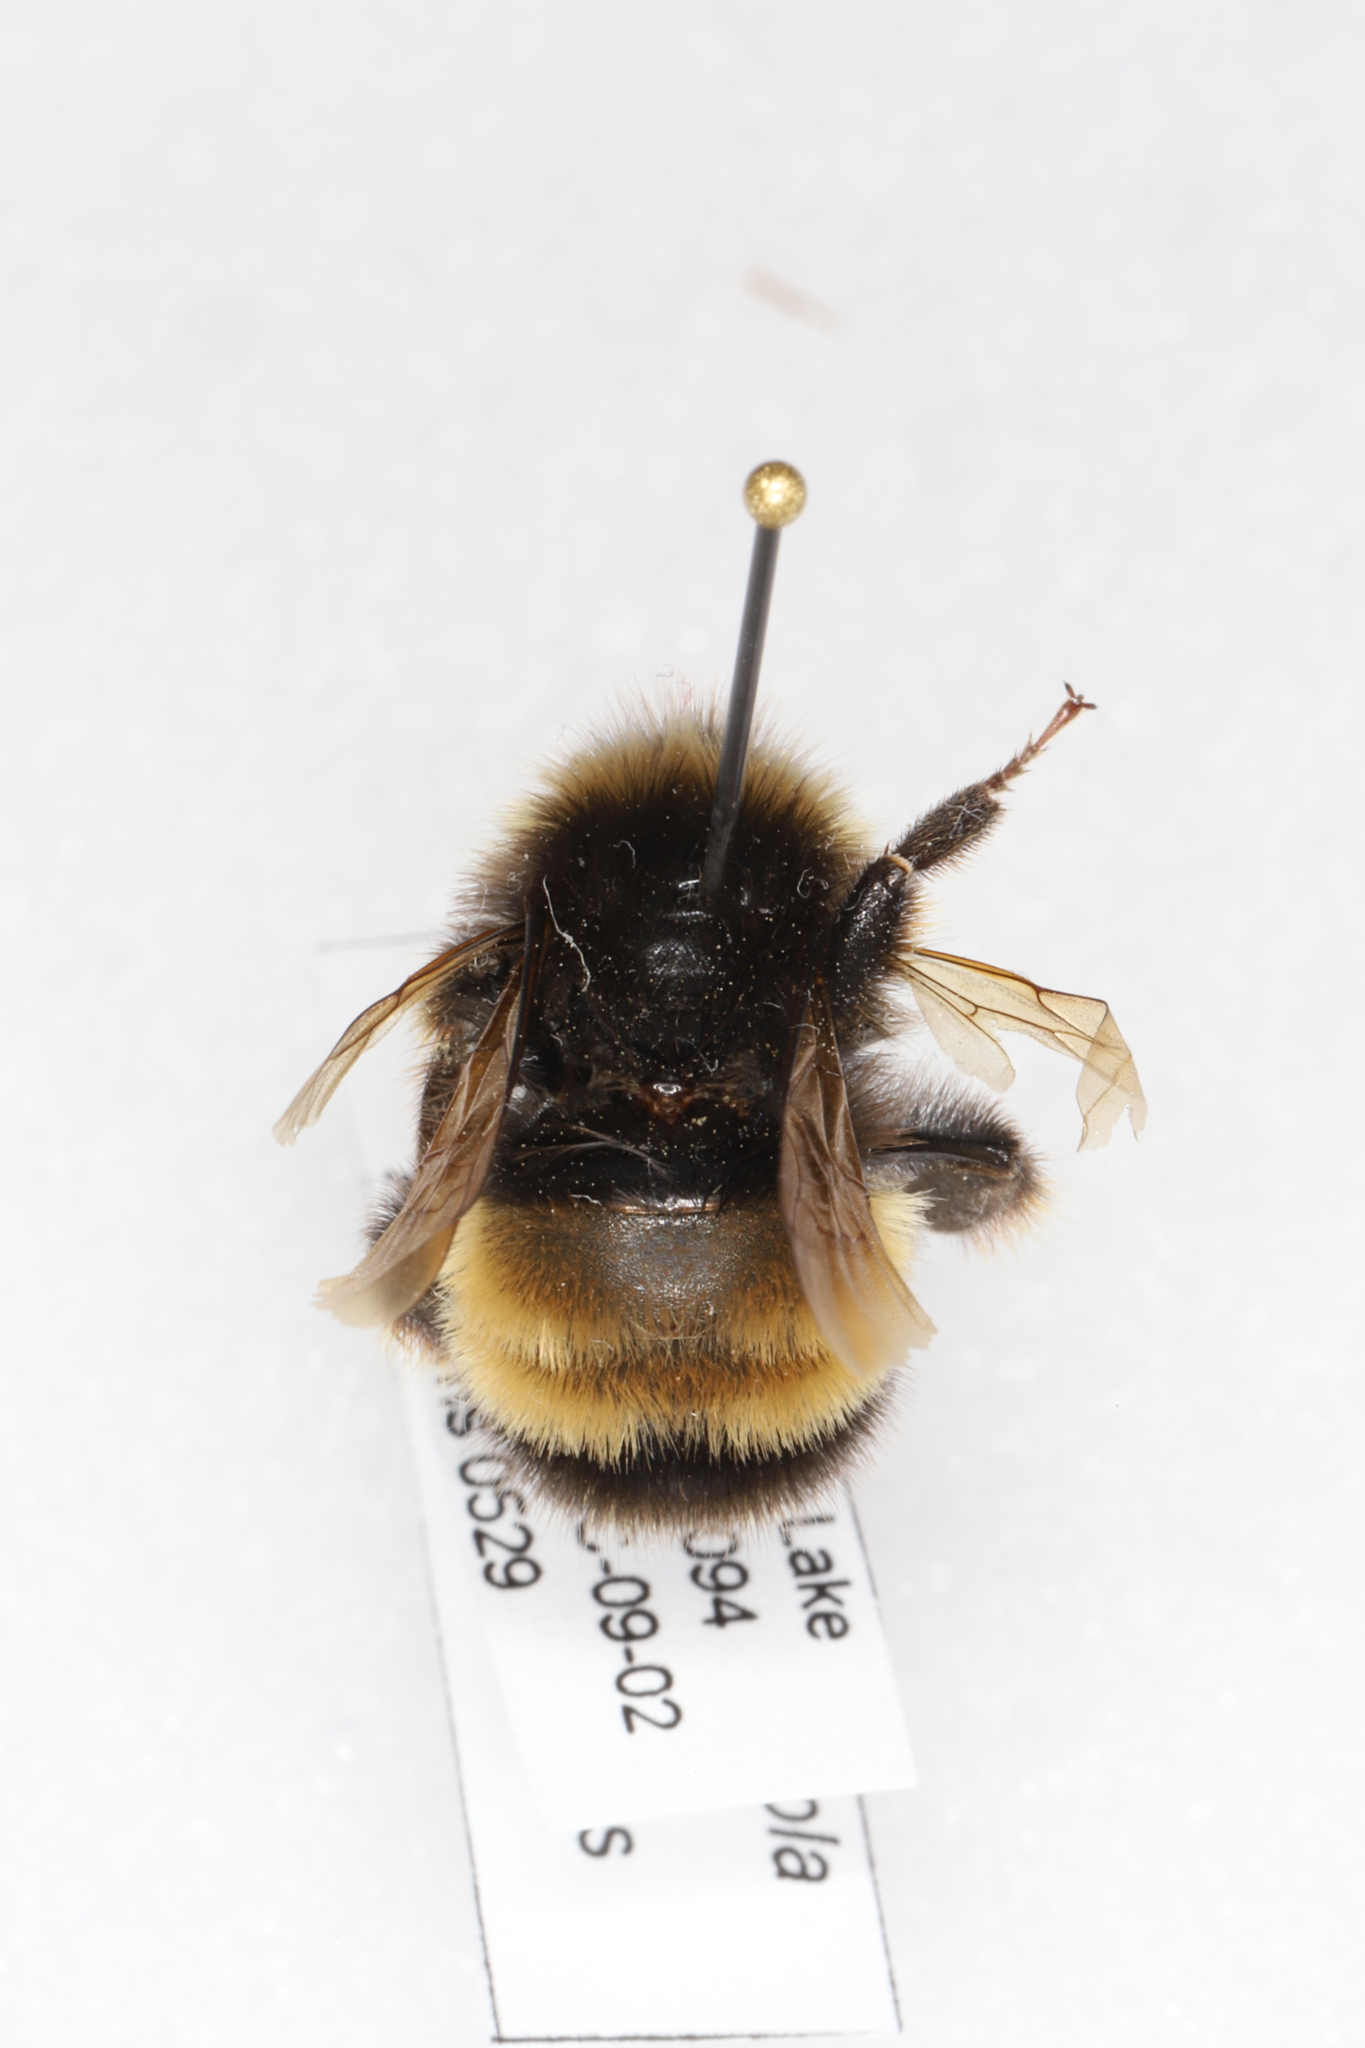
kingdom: Animalia
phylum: Arthropoda
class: Insecta
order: Hymenoptera
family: Apidae
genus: Bombus
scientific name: Bombus terricola
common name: Yellow-banded bumble bee
